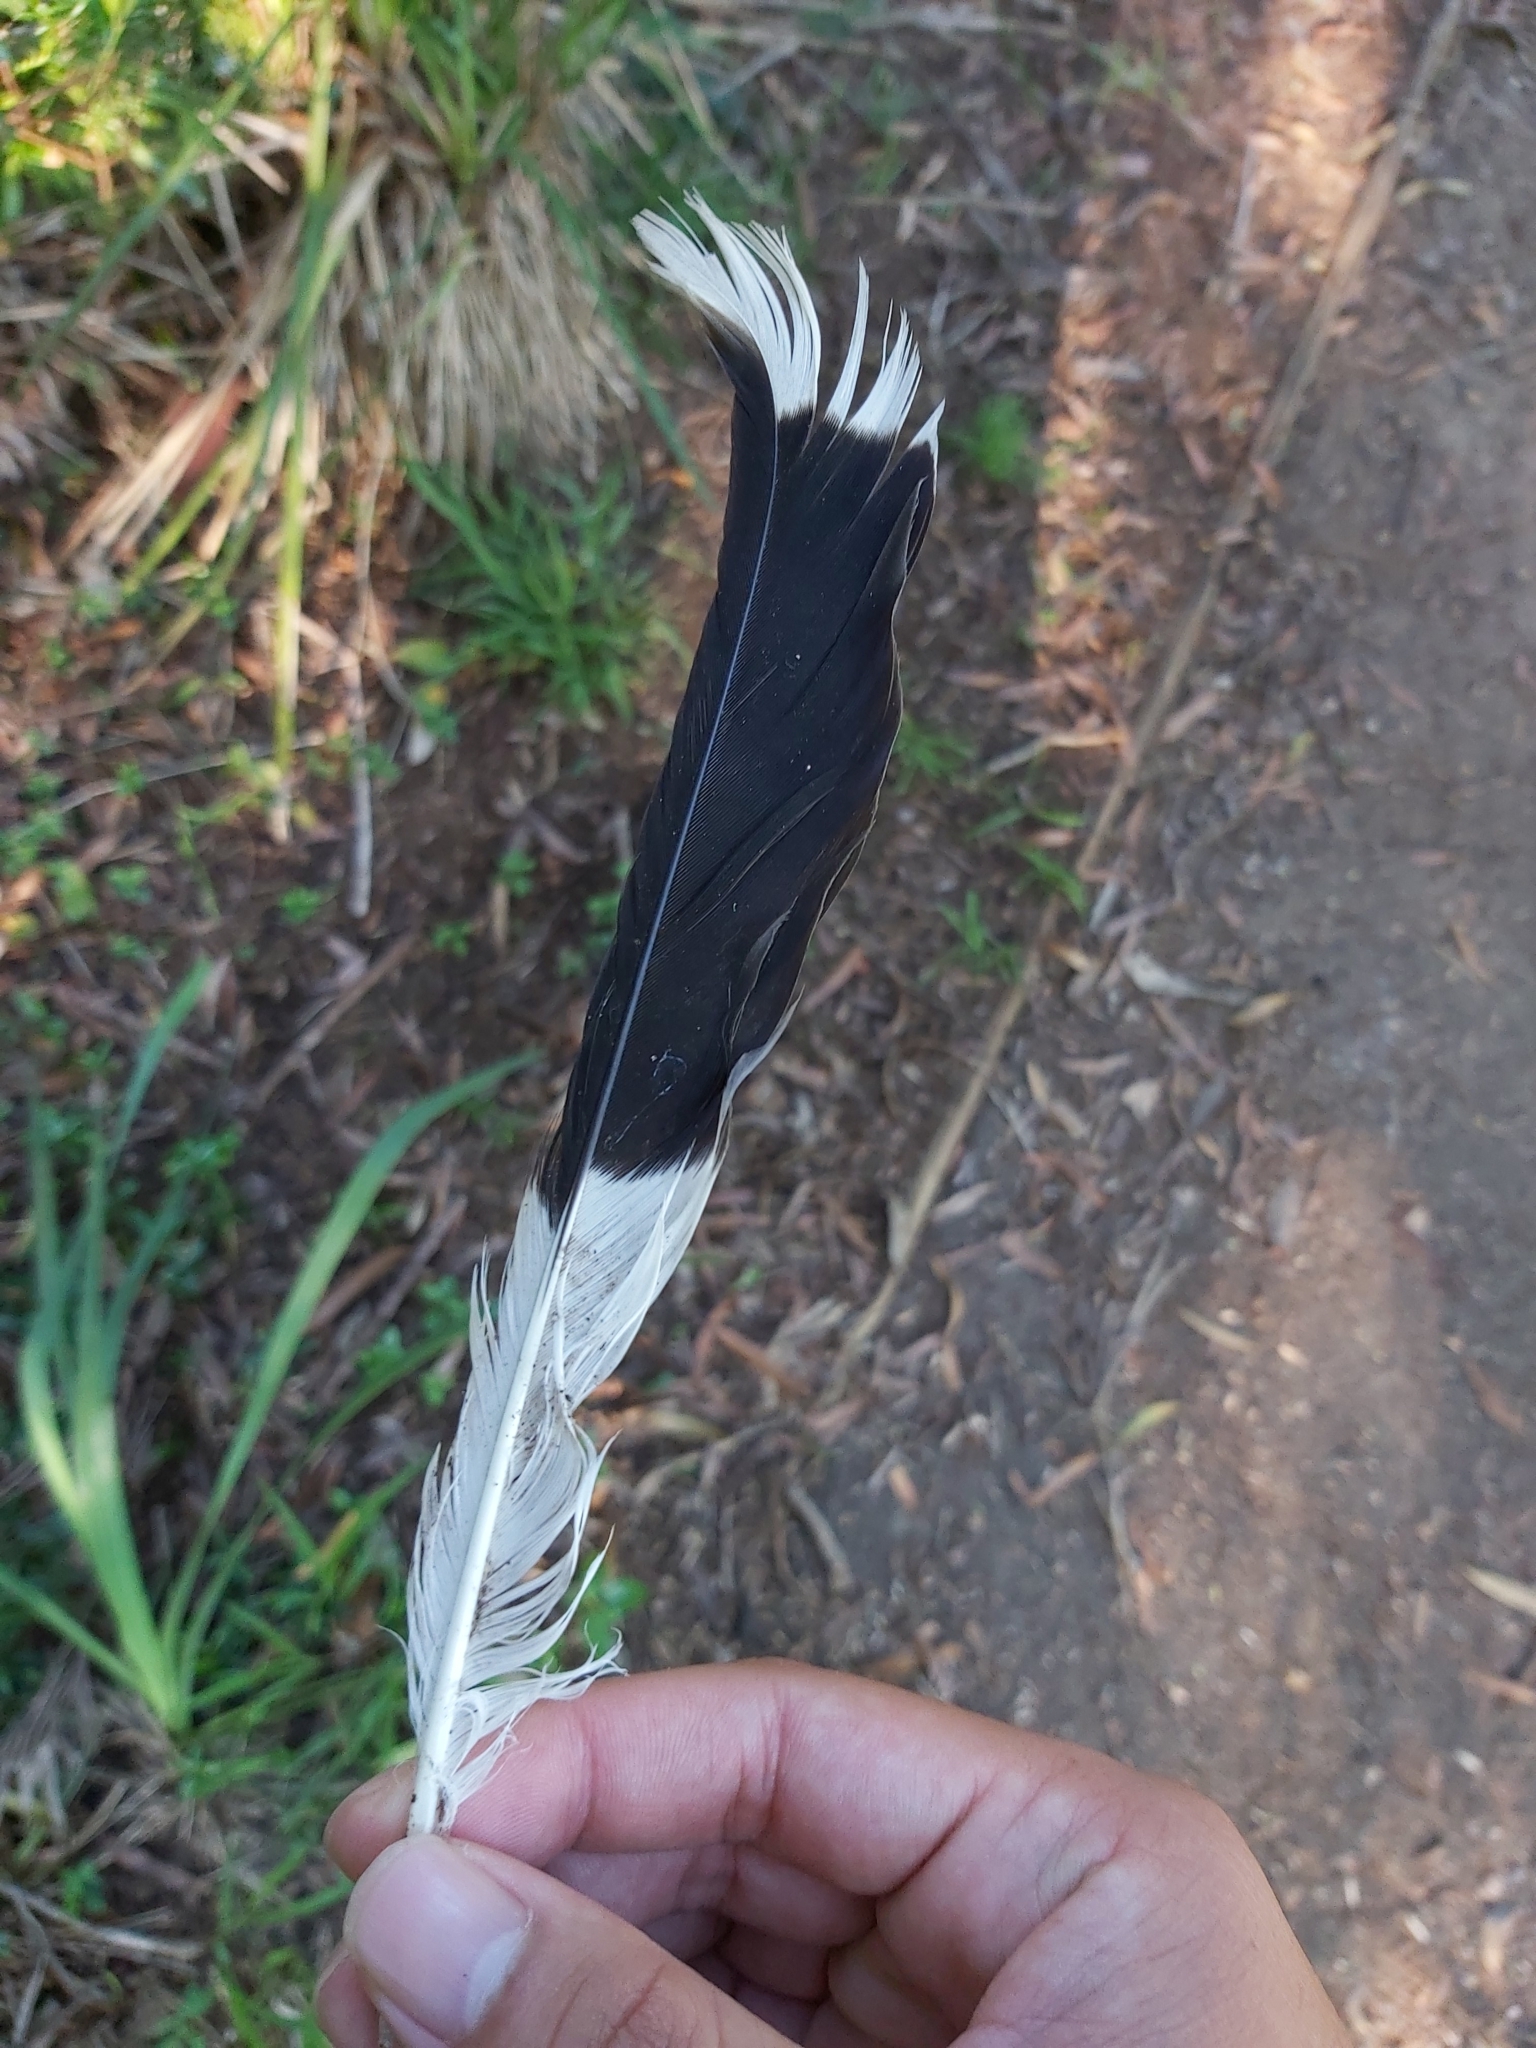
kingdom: Animalia
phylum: Chordata
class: Aves
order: Passeriformes
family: Cracticidae
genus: Strepera
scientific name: Strepera graculina
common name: Pied currawong
